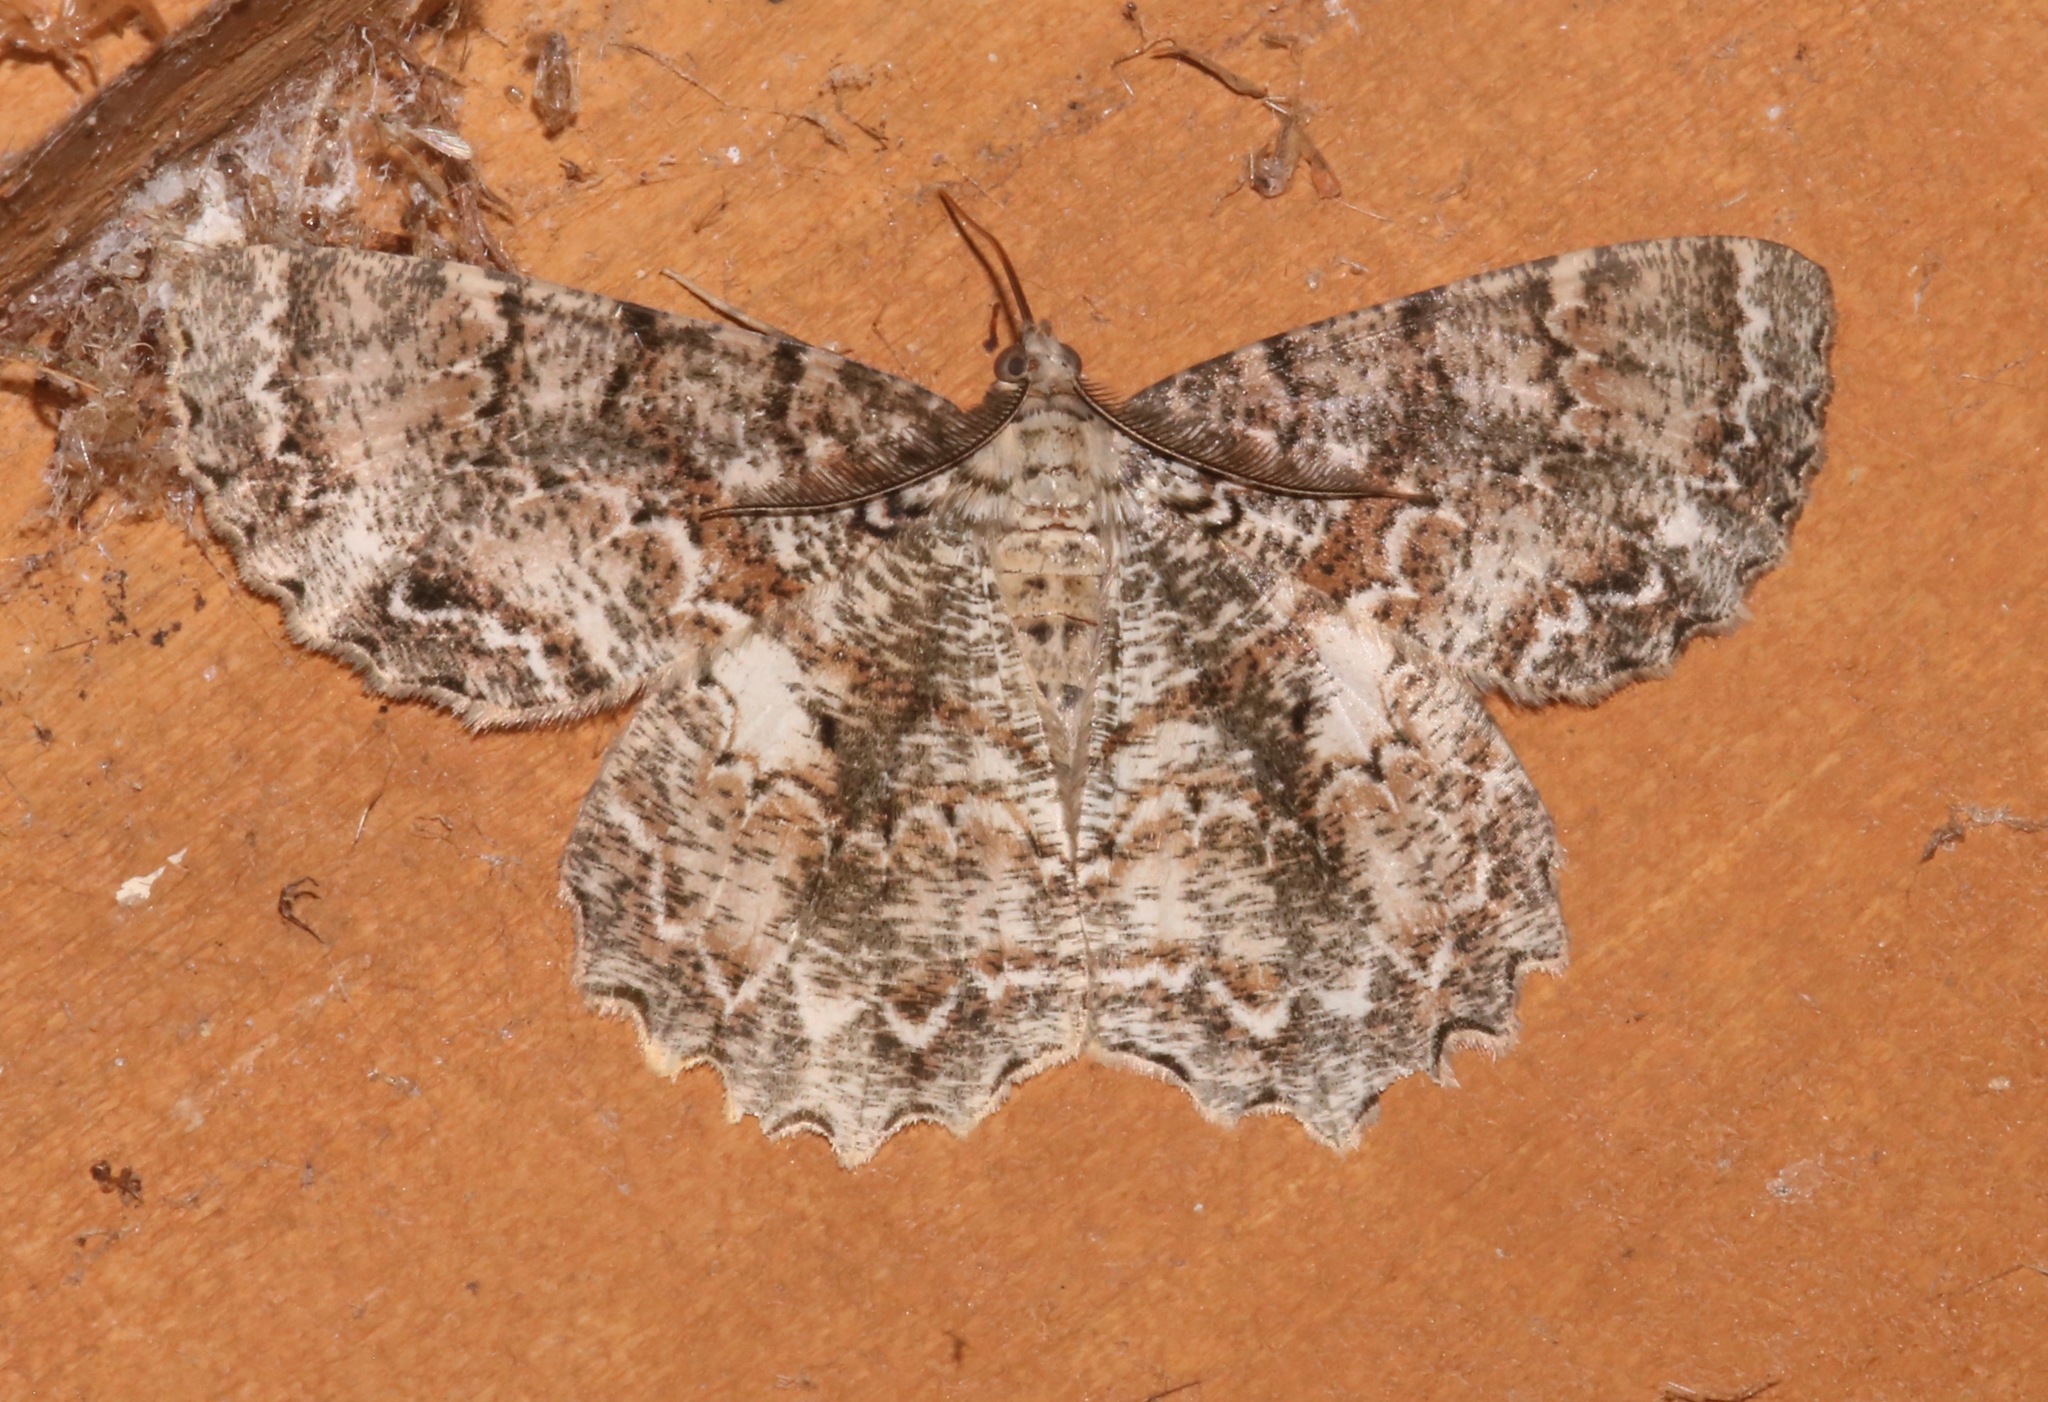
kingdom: Animalia
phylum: Arthropoda
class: Insecta
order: Lepidoptera
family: Geometridae
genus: Epimecis
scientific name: Epimecis hortaria
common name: Tulip-tree beauty
